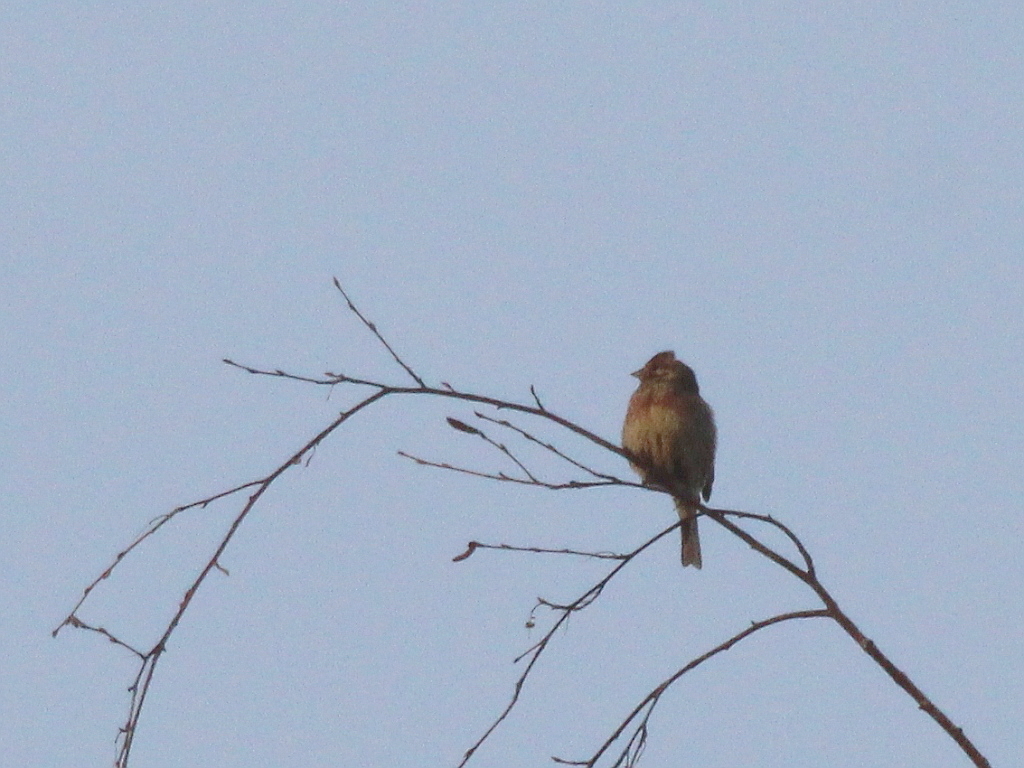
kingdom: Animalia
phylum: Chordata
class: Aves
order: Passeriformes
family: Emberizidae
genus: Emberiza
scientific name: Emberiza
